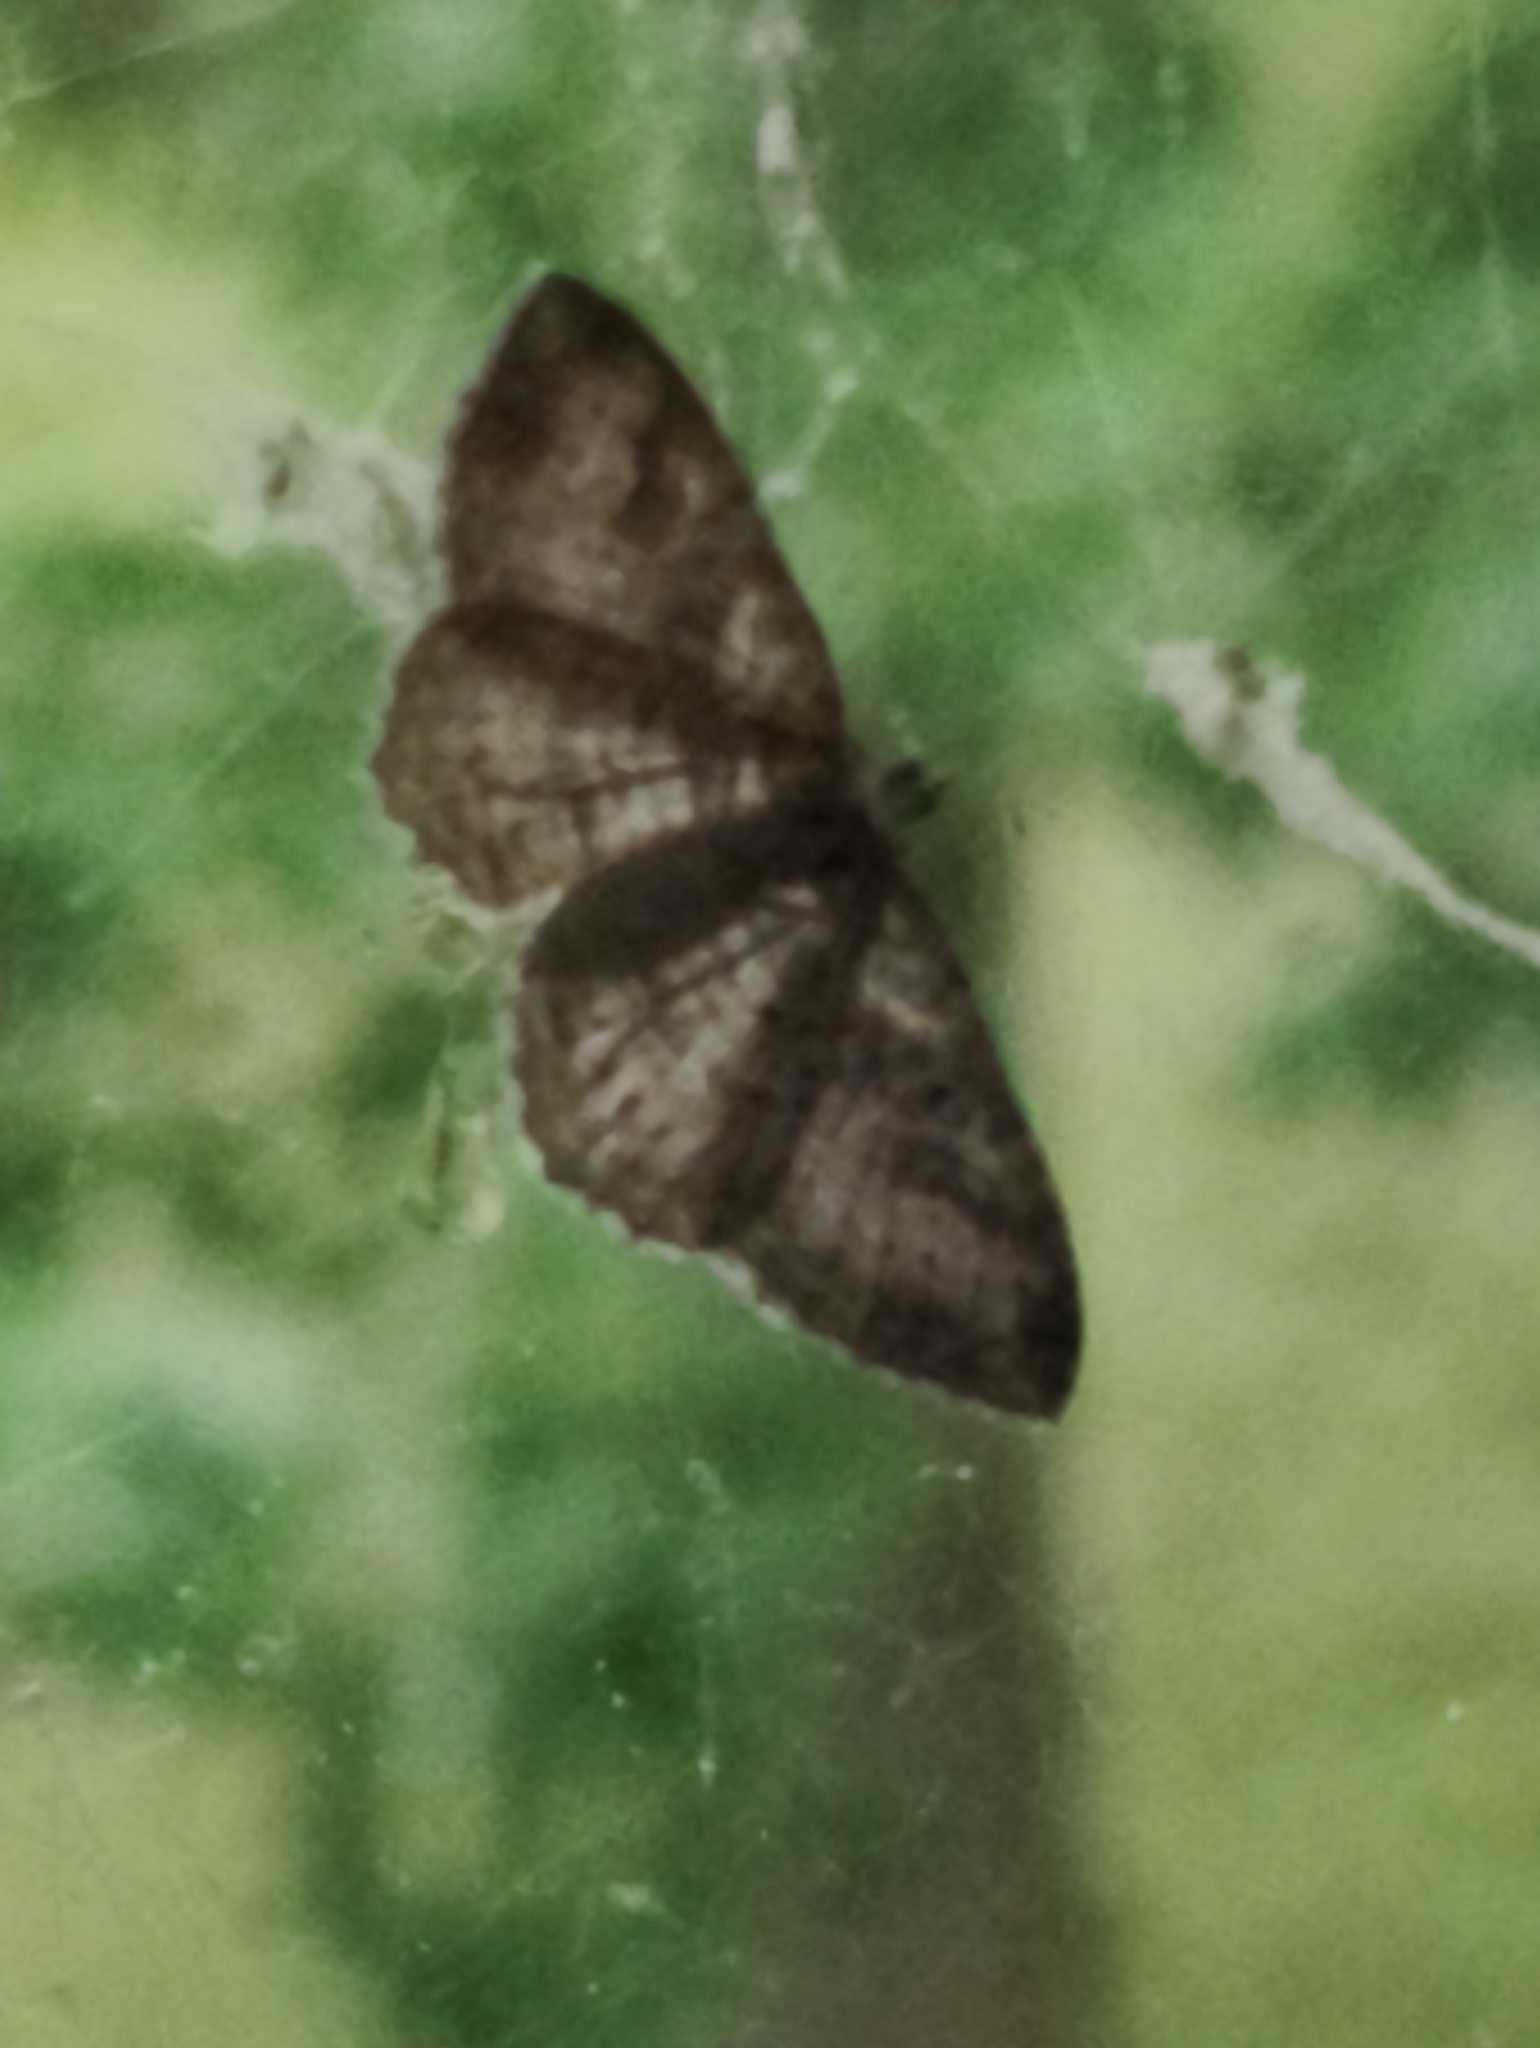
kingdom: Animalia
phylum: Arthropoda
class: Insecta
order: Lepidoptera
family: Geometridae
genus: Costaconvexa
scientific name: Costaconvexa centrostrigaria
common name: Bent-line carpet
